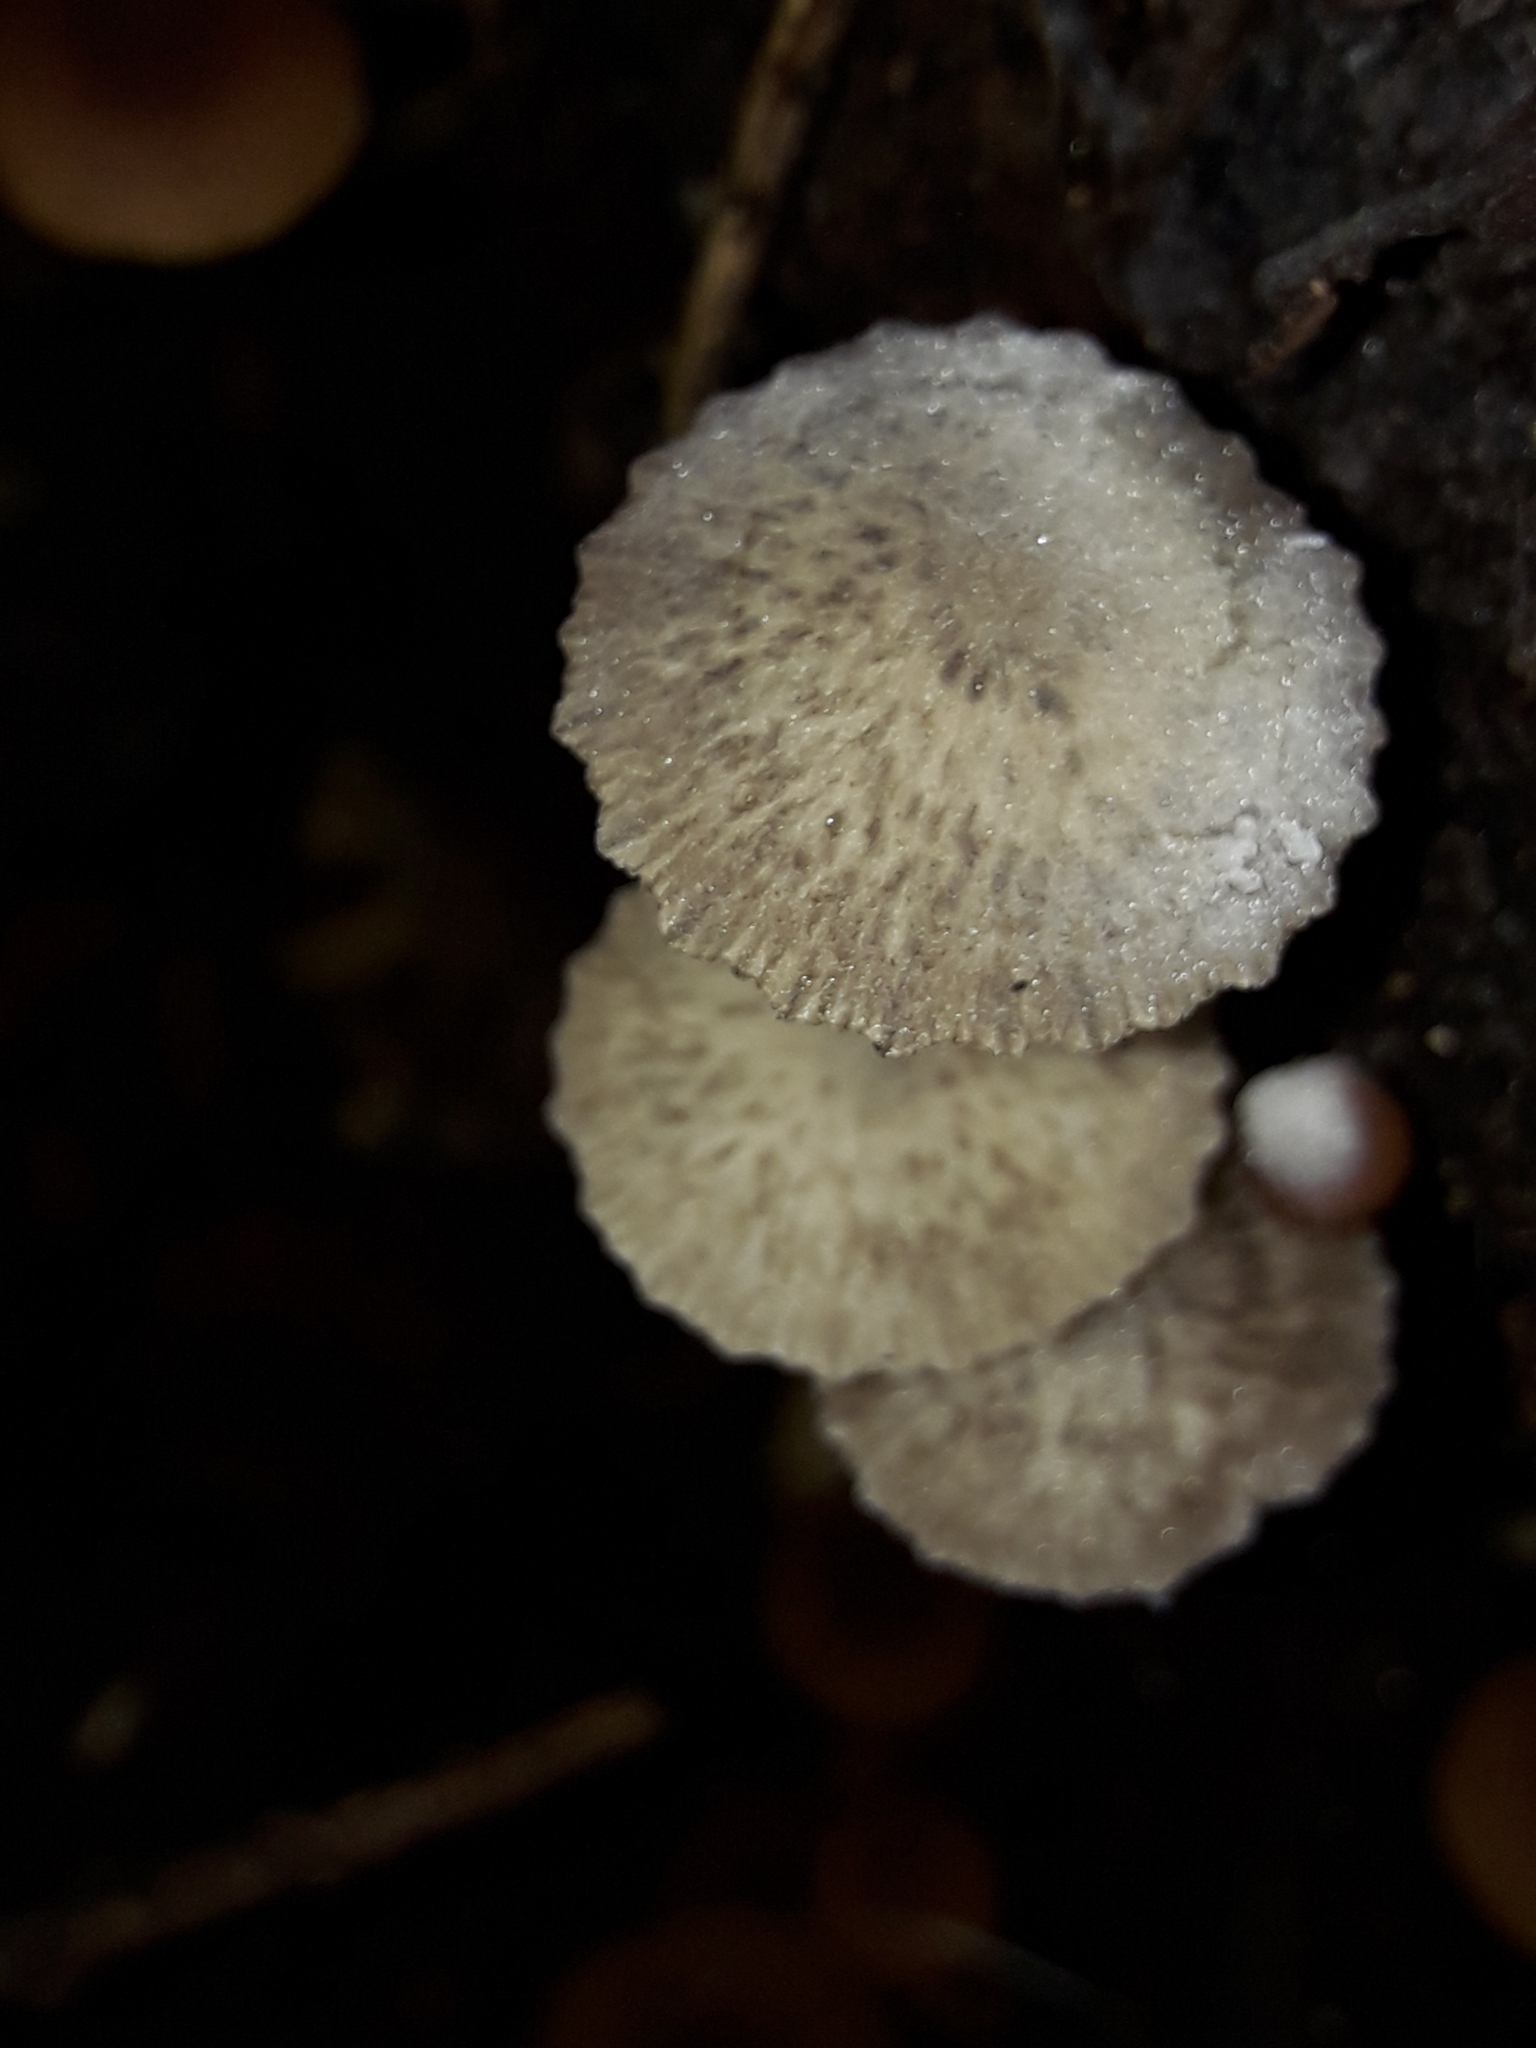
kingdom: Fungi
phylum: Basidiomycota
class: Agaricomycetes
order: Agaricales
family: Porotheleaceae
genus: Pseudohydropus
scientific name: Pseudohydropus parafunebris
